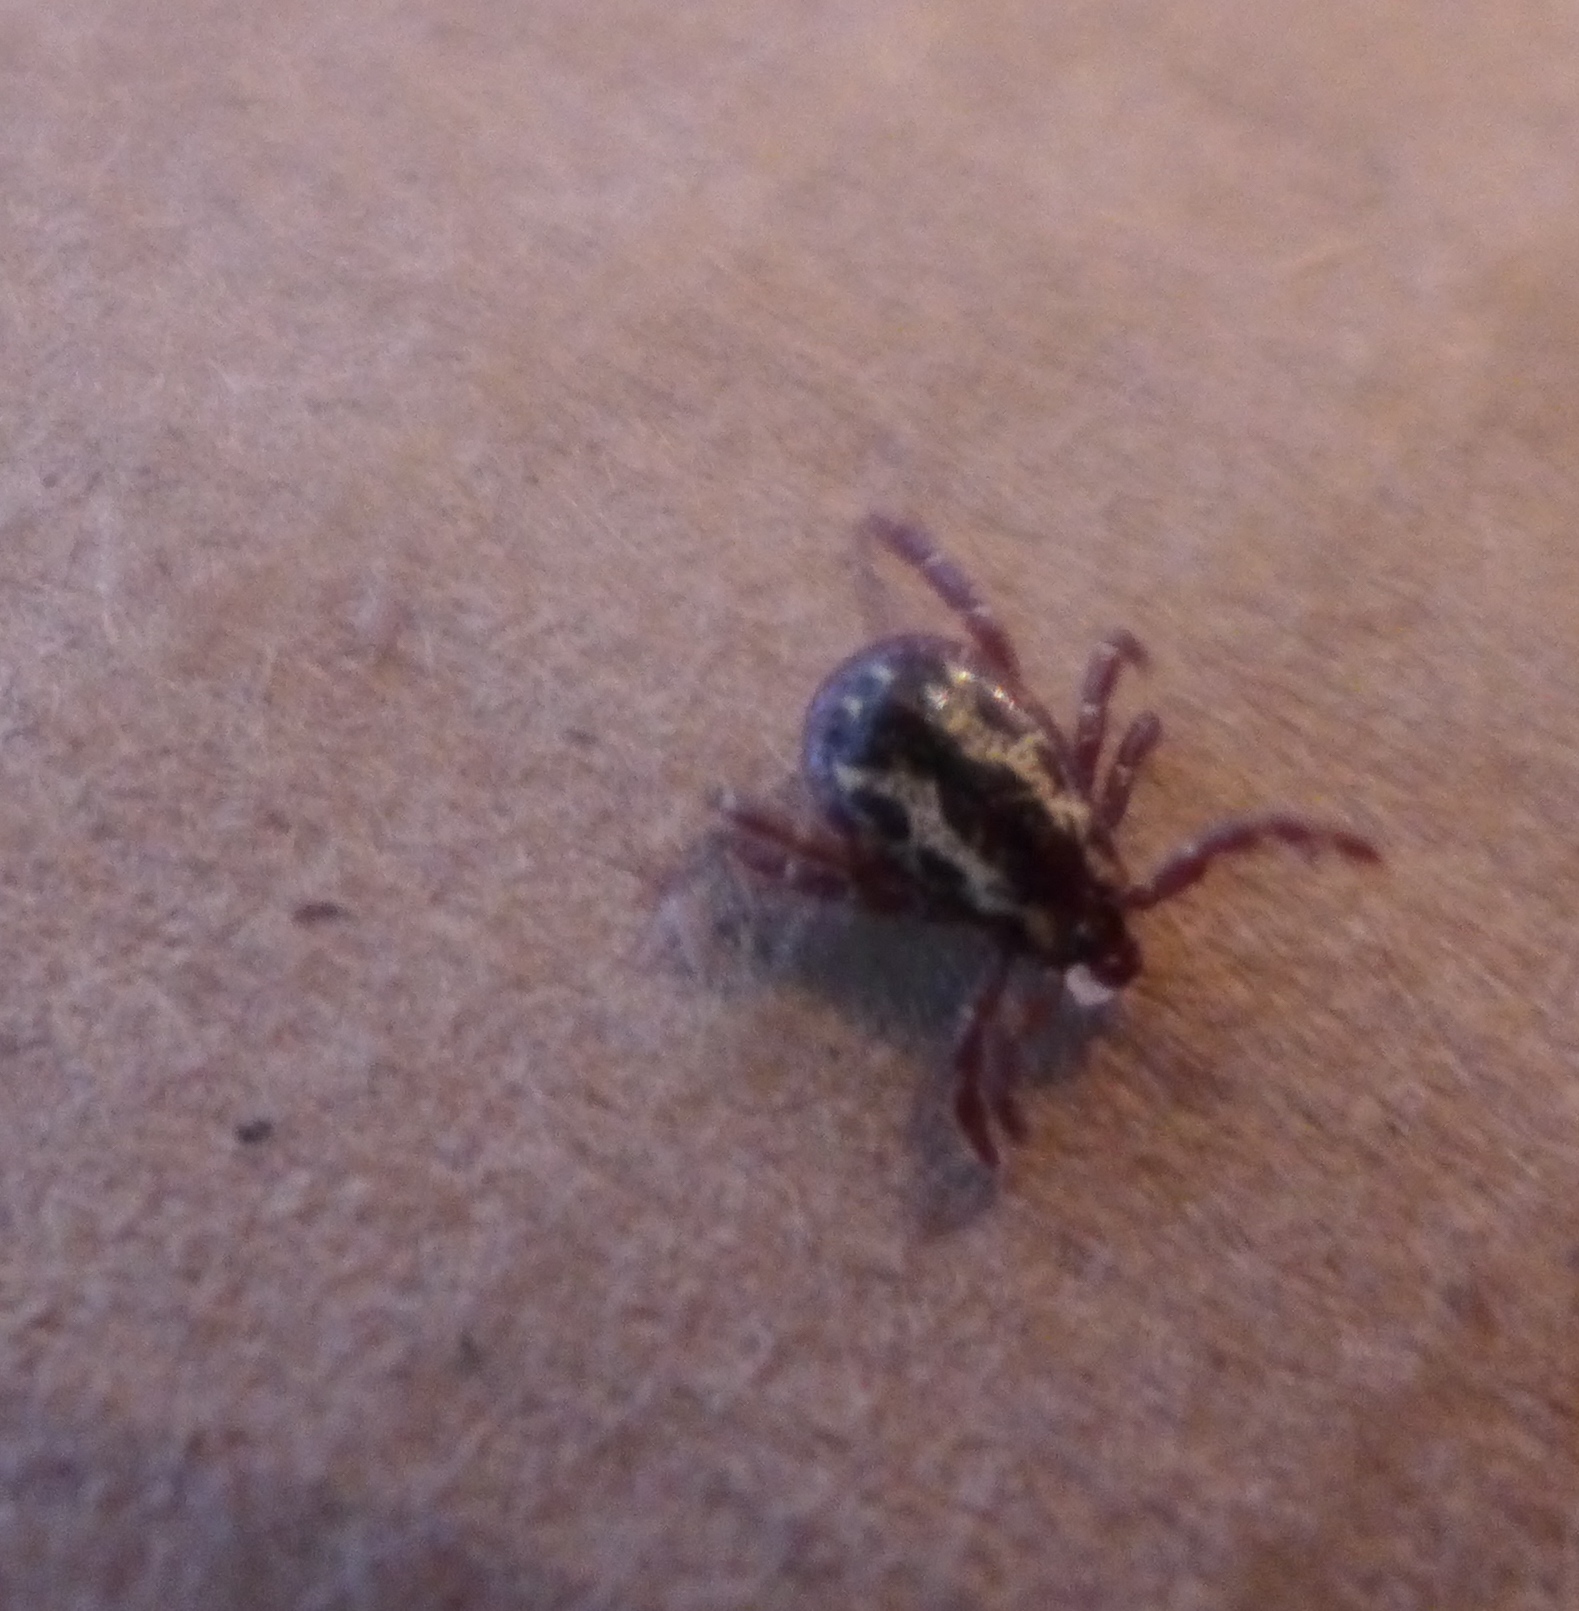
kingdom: Animalia
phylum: Arthropoda
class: Arachnida
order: Ixodida
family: Ixodidae
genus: Dermacentor
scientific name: Dermacentor variabilis
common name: American dog tick
